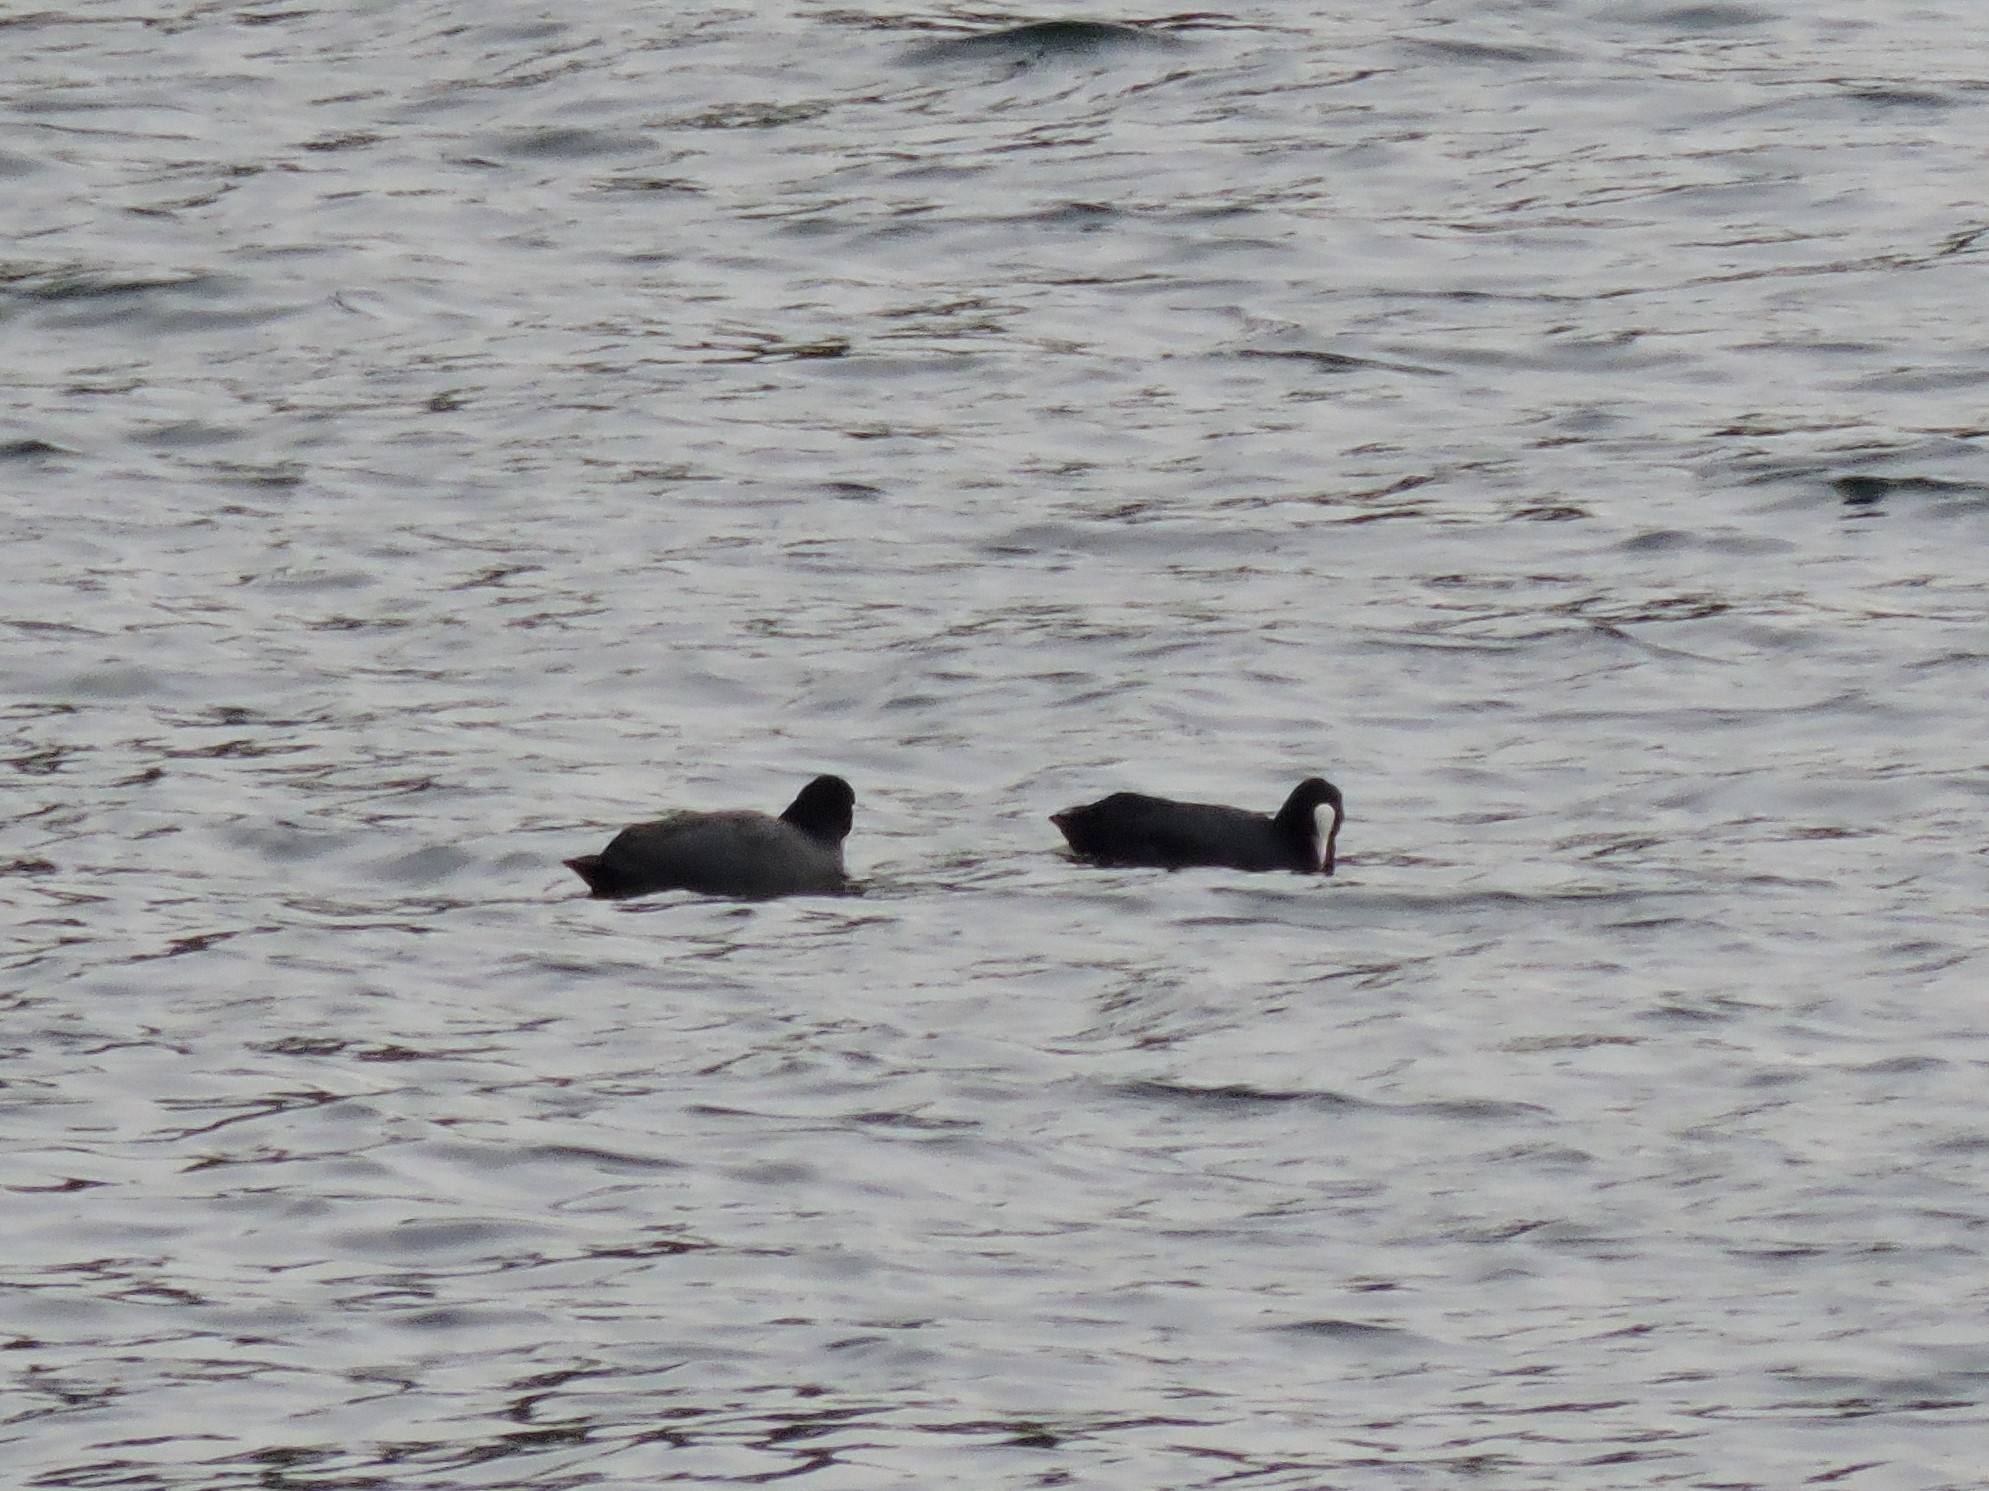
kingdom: Animalia
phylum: Chordata
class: Aves
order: Gruiformes
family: Rallidae
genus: Fulica
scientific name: Fulica atra
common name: Eurasian coot
